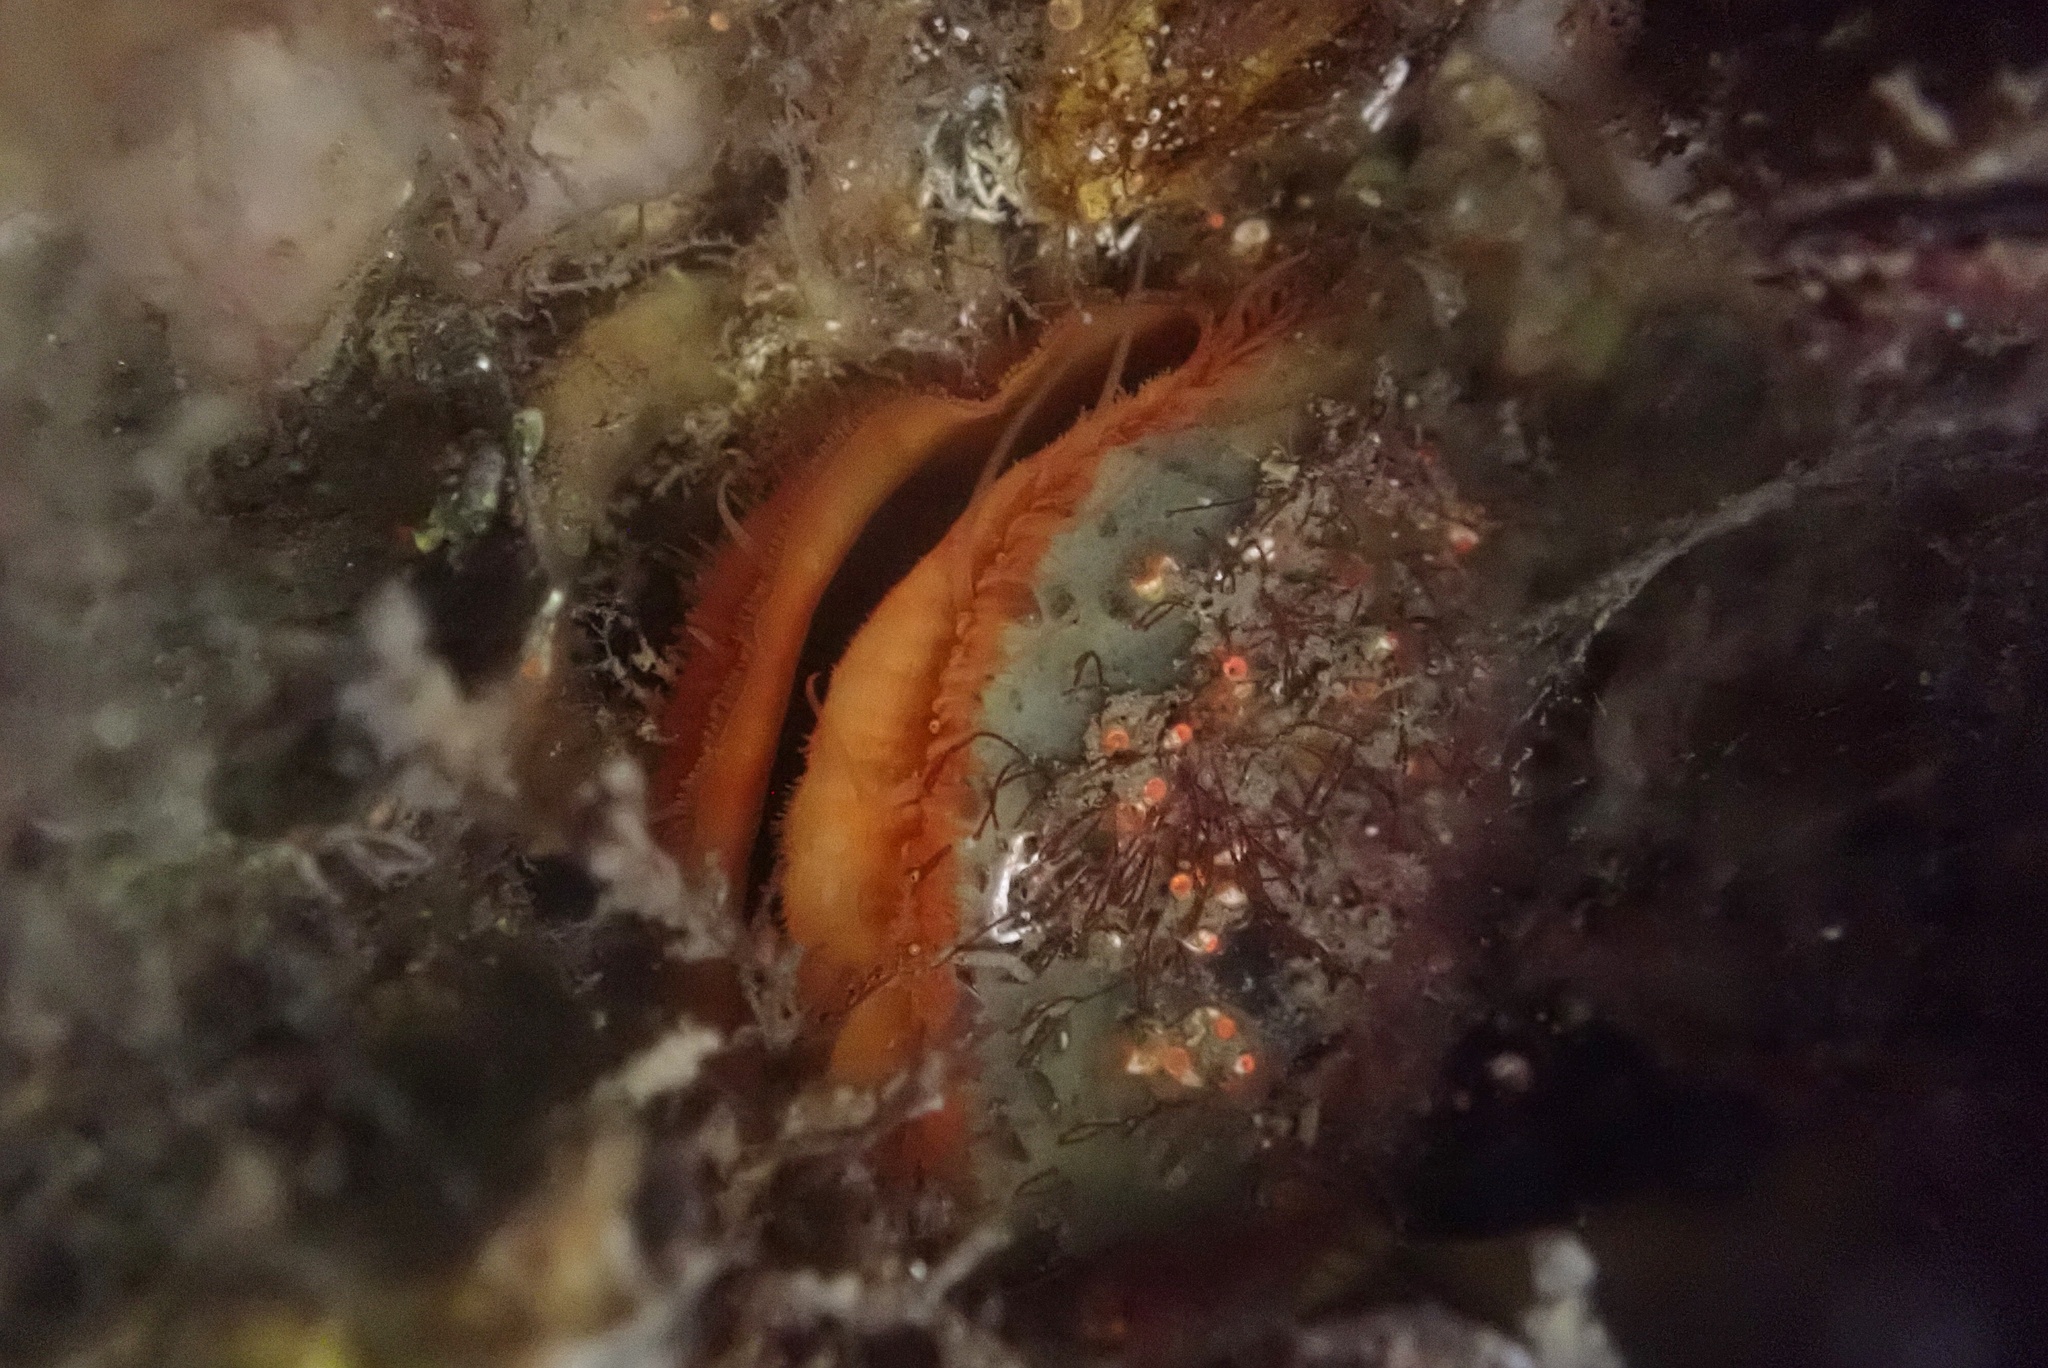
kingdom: Animalia
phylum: Mollusca
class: Bivalvia
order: Pectinida
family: Pectinidae
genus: Crassadoma
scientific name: Crassadoma gigantea
